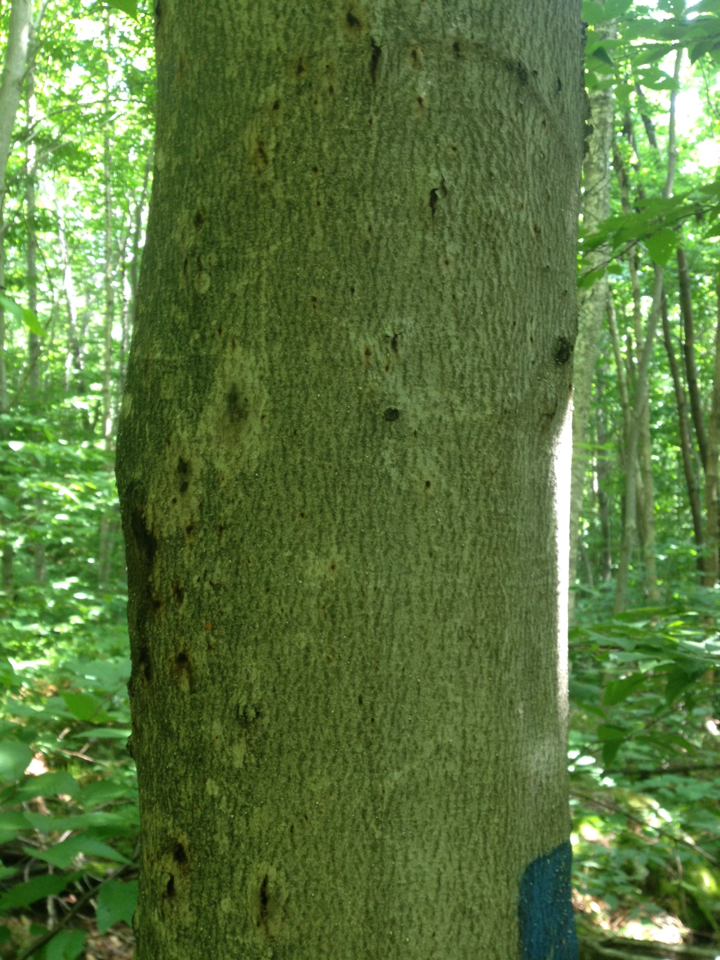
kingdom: Plantae
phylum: Tracheophyta
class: Magnoliopsida
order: Fagales
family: Fagaceae
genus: Fagus
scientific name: Fagus grandifolia
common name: American beech
